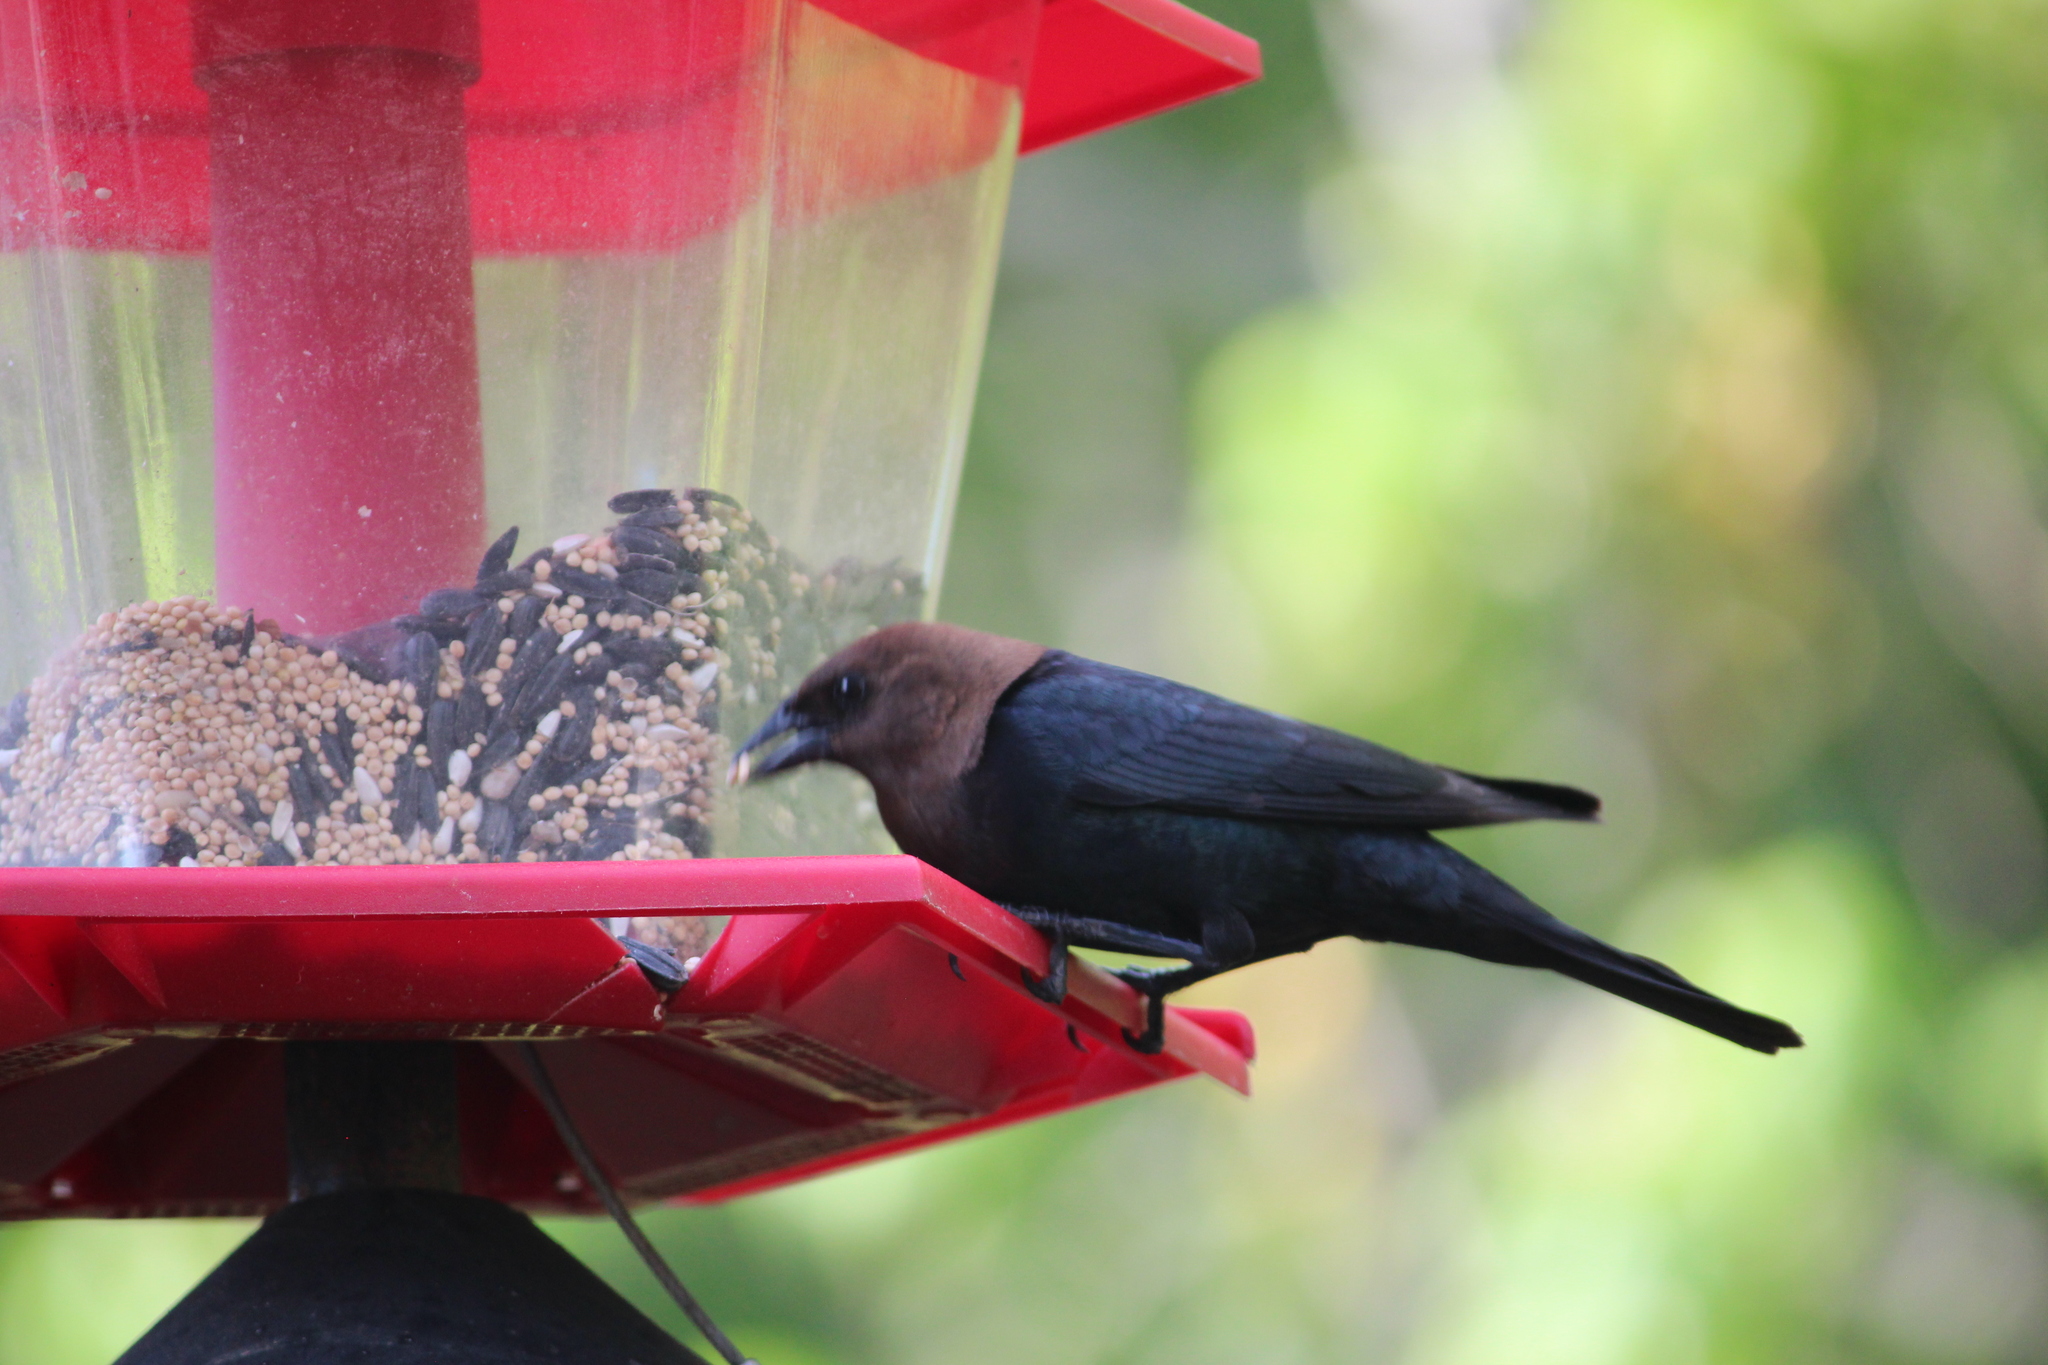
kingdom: Animalia
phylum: Chordata
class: Aves
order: Passeriformes
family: Icteridae
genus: Molothrus
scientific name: Molothrus ater
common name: Brown-headed cowbird
